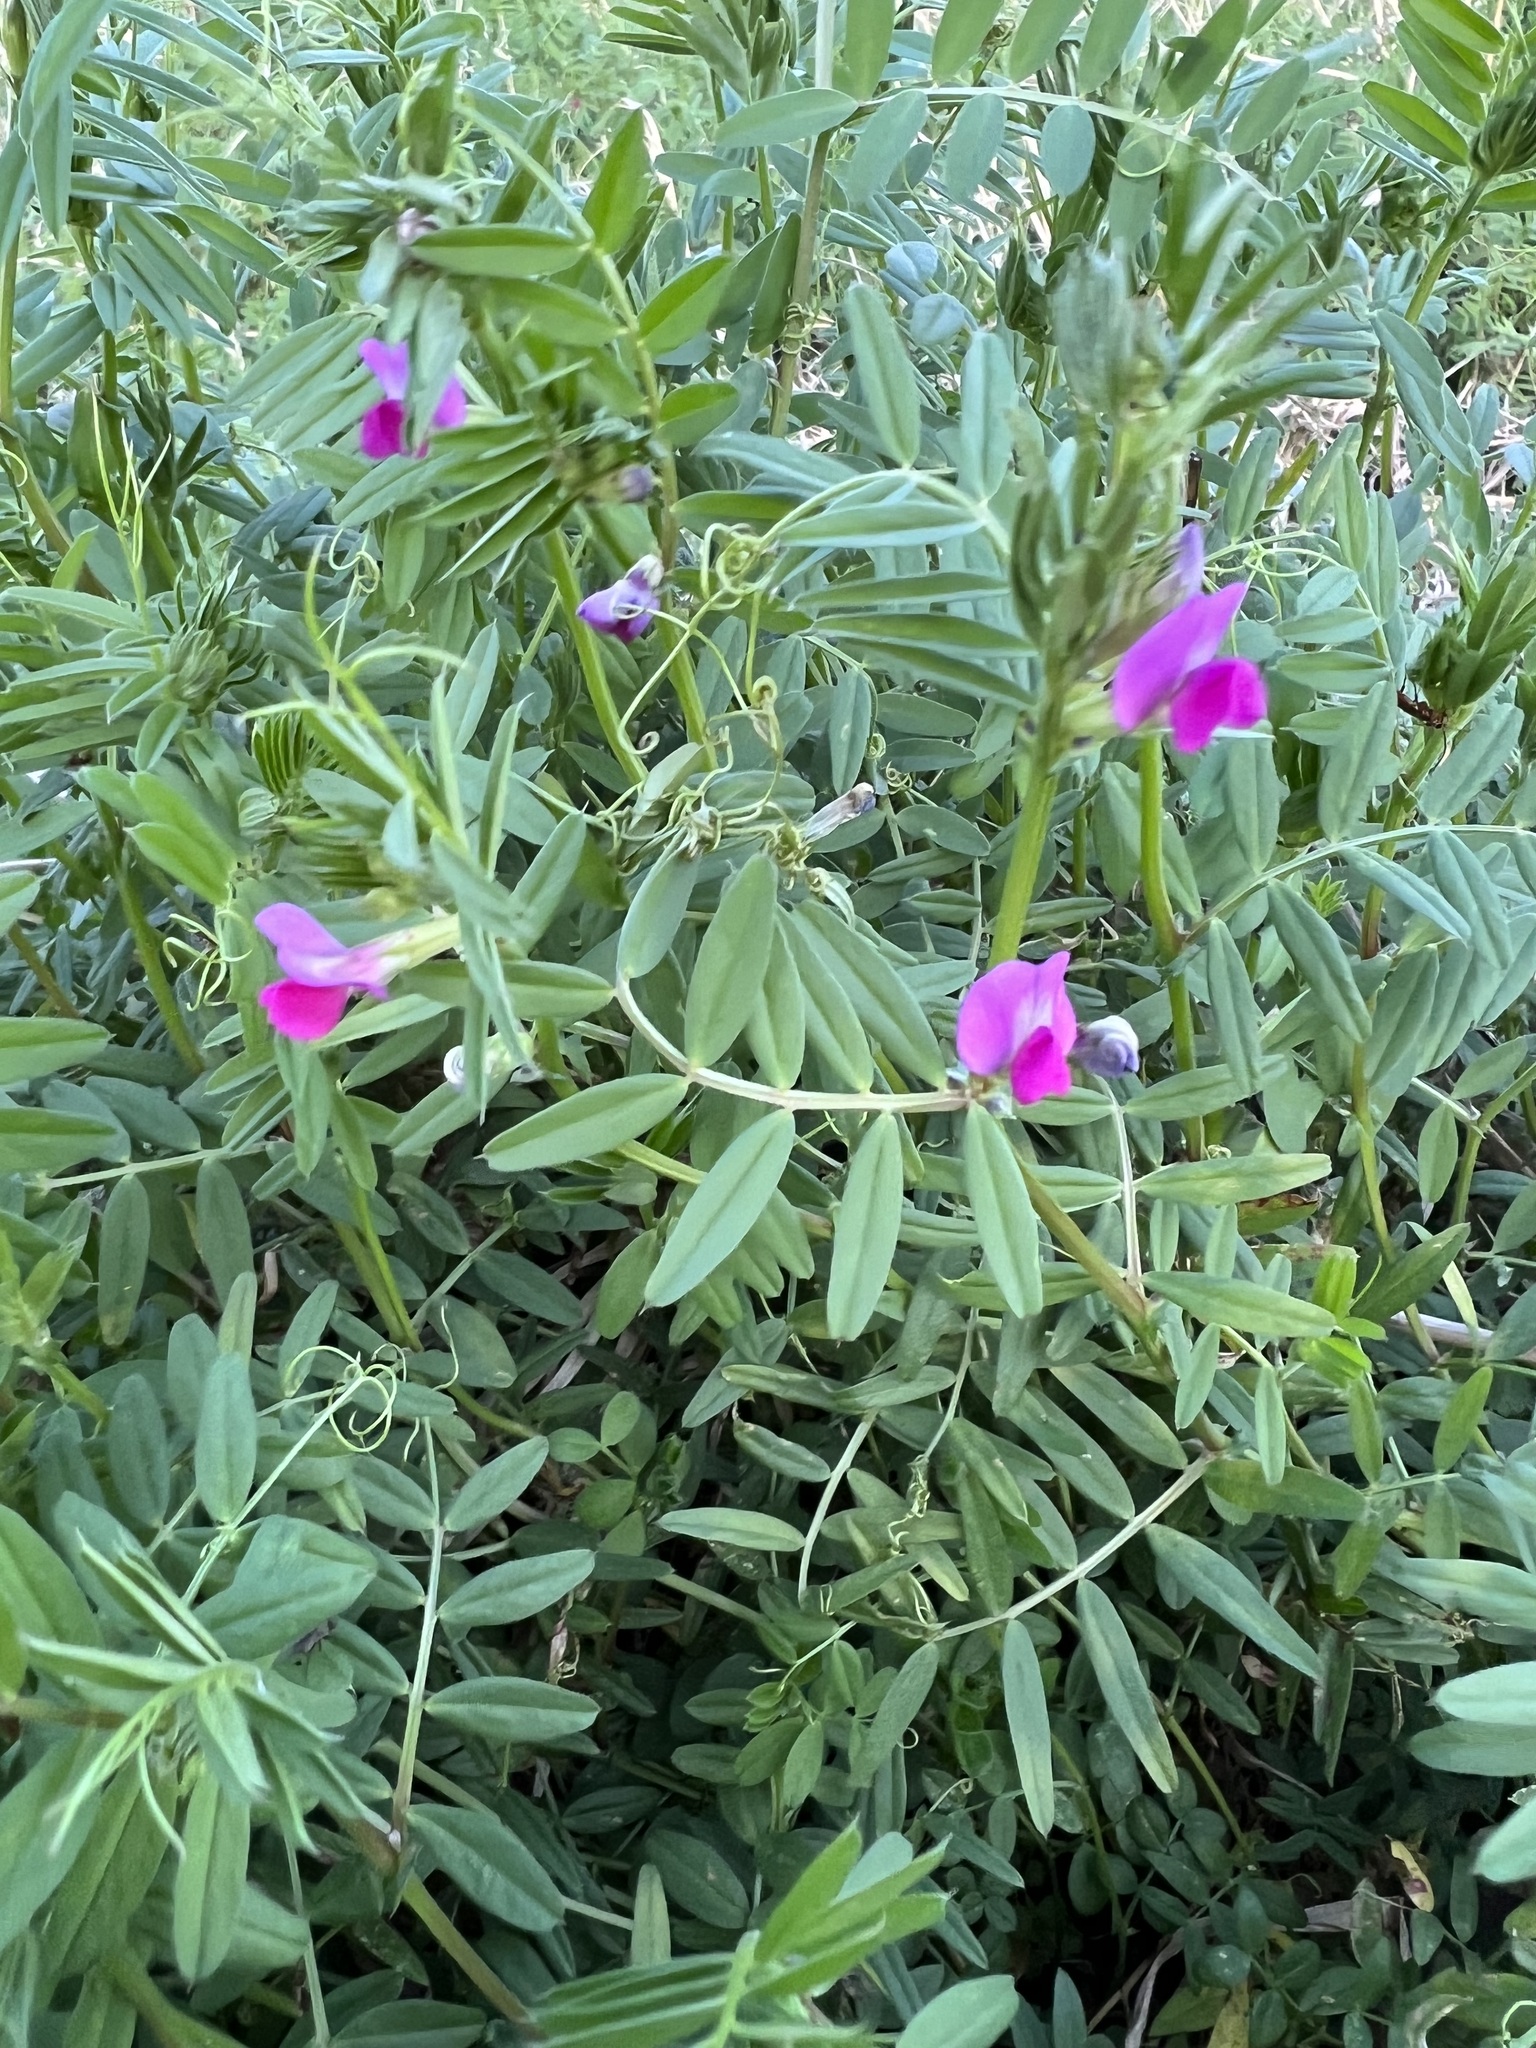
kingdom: Plantae
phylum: Tracheophyta
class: Magnoliopsida
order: Fabales
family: Fabaceae
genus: Vicia
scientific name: Vicia sativa
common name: Garden vetch
